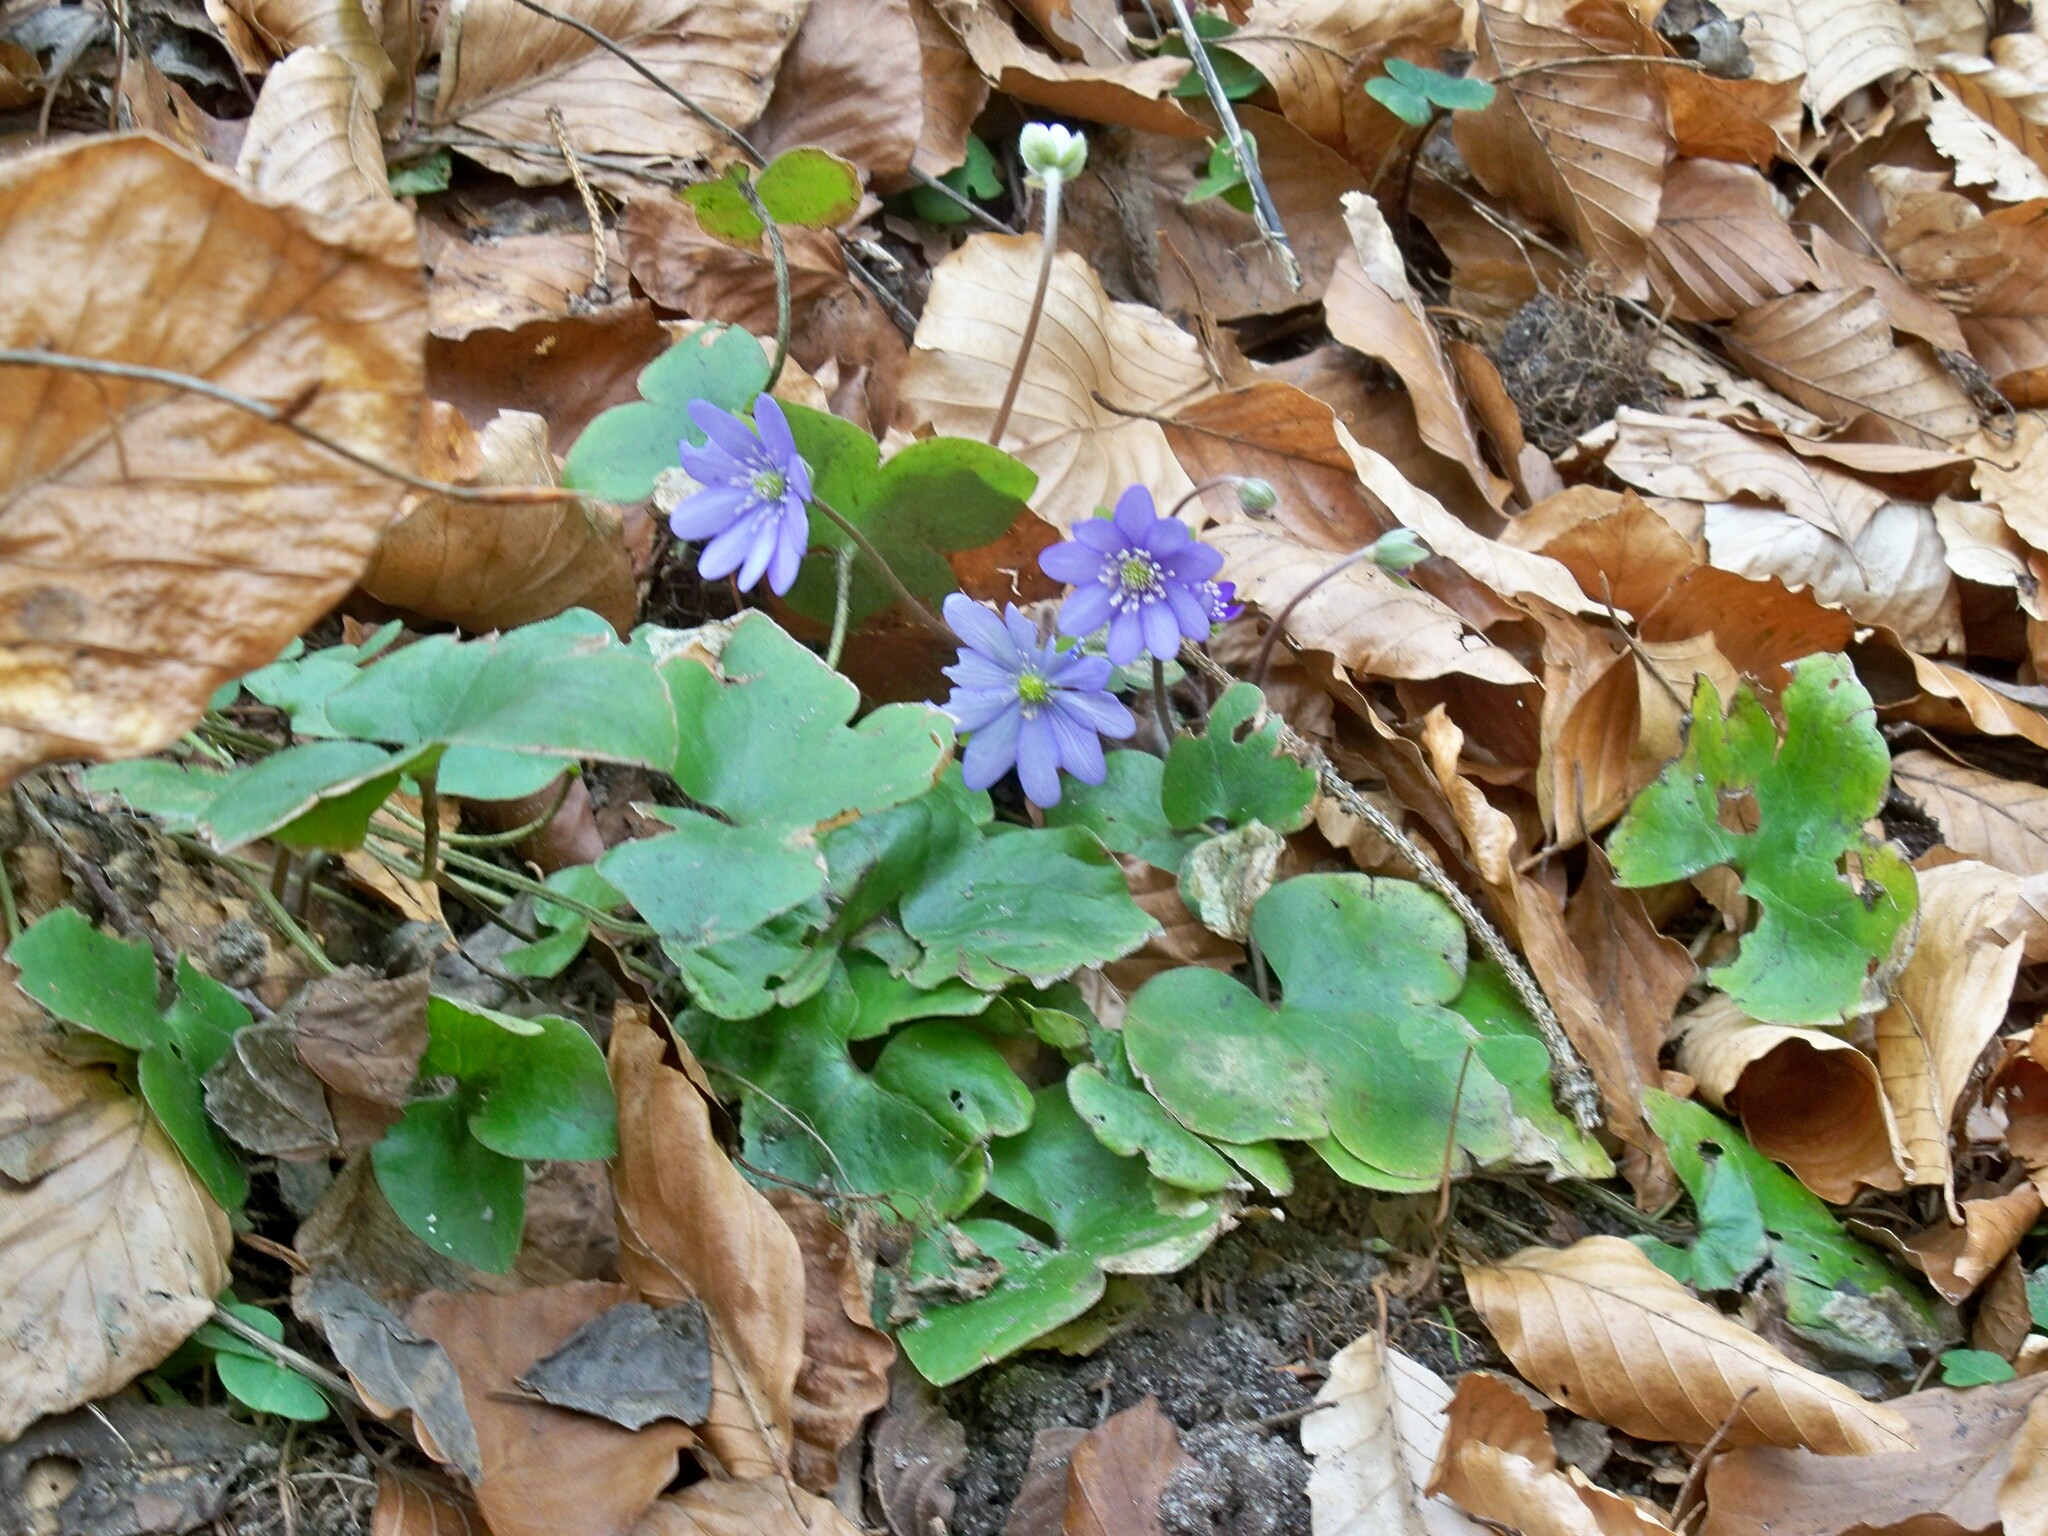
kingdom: Plantae
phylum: Tracheophyta
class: Magnoliopsida
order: Ranunculales
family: Ranunculaceae
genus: Hepatica
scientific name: Hepatica nobilis
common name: Liverleaf
